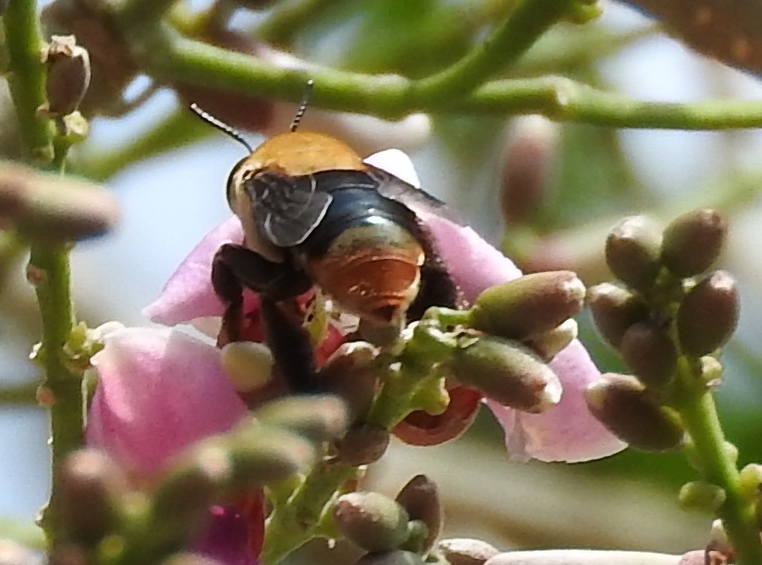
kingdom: Animalia
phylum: Arthropoda
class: Insecta
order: Hymenoptera
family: Apidae
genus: Centris
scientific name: Centris varia
